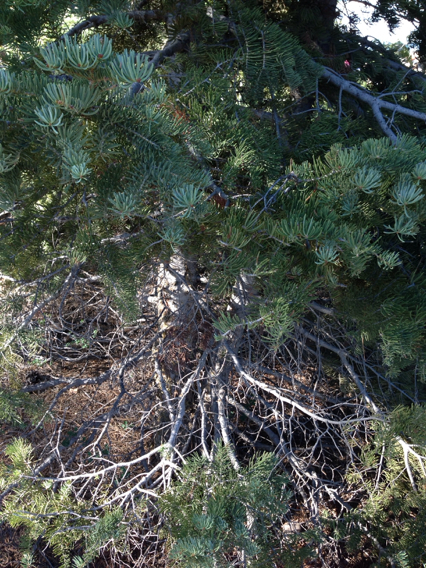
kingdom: Plantae
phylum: Tracheophyta
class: Pinopsida
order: Pinales
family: Pinaceae
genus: Abies
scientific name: Abies concolor
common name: Colorado fir
